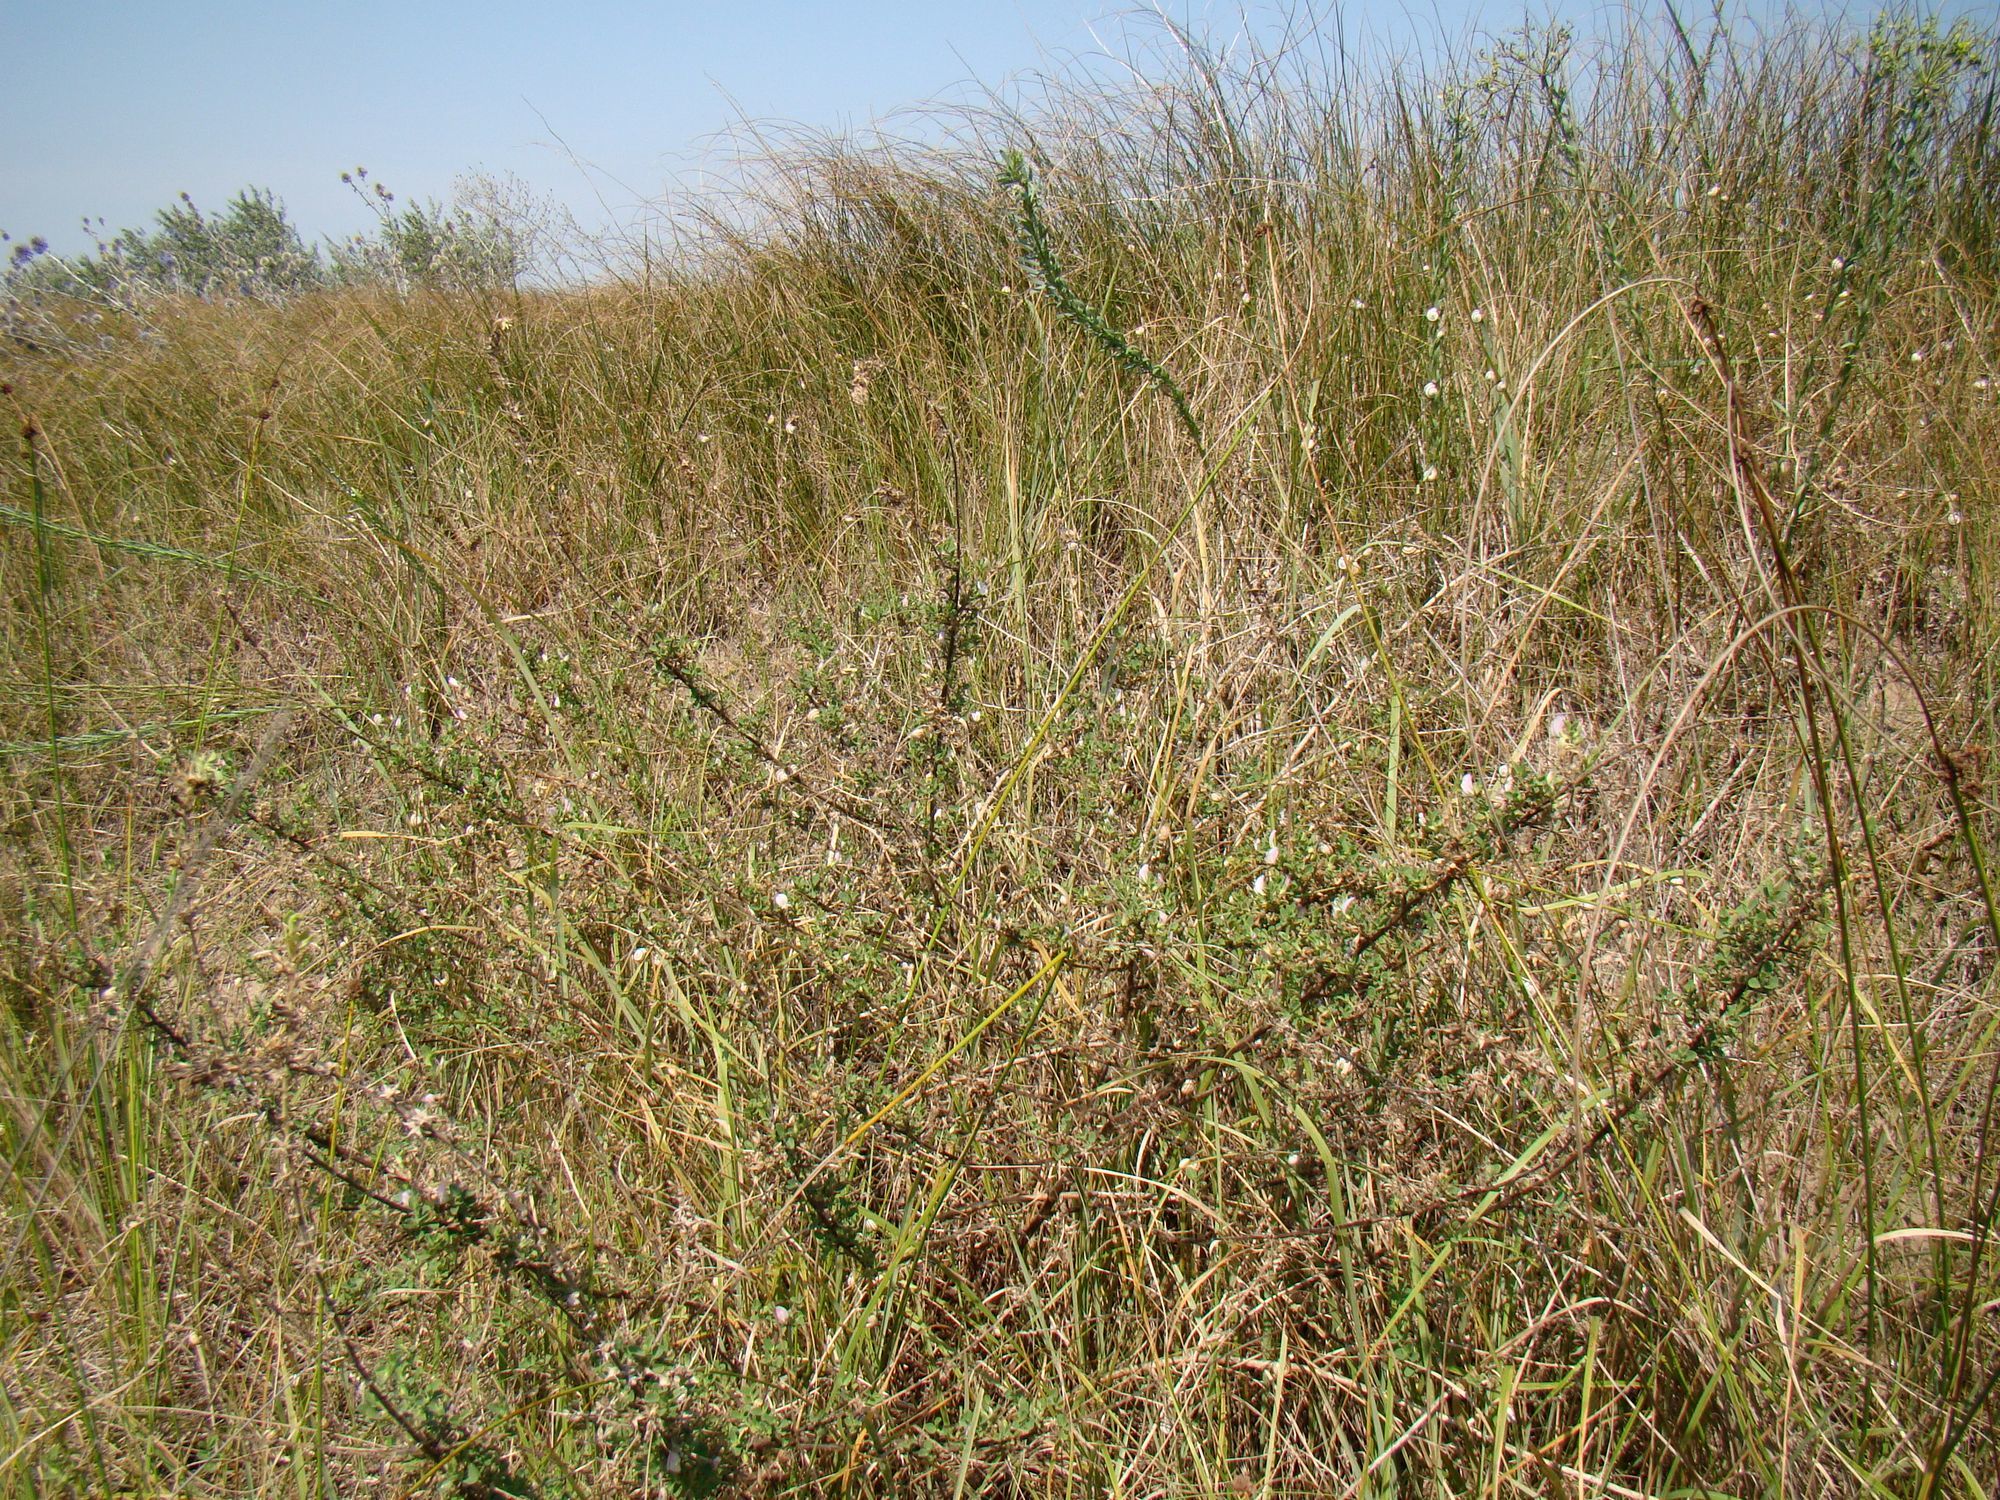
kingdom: Plantae
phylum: Tracheophyta
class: Magnoliopsida
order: Fabales
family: Fabaceae
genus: Ononis
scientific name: Ononis arvensis
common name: Field restharrow
